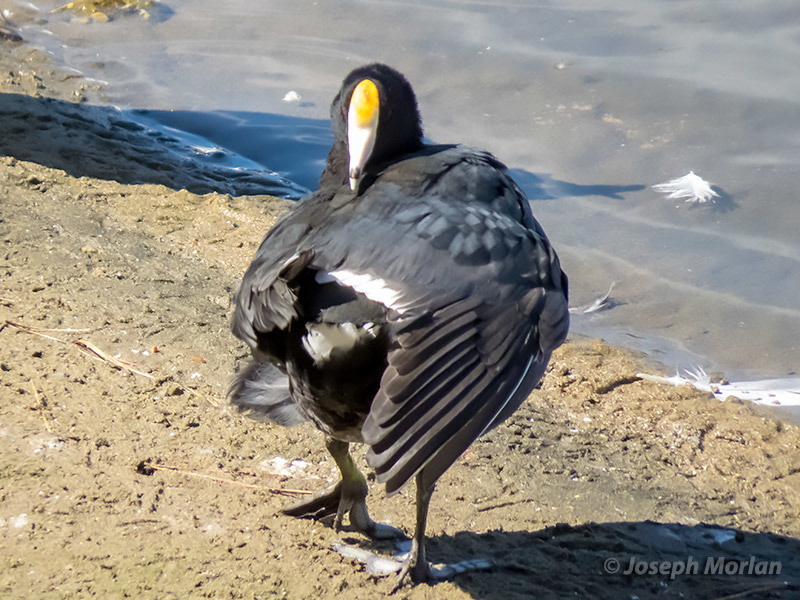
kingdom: Animalia
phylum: Chordata
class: Aves
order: Gruiformes
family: Rallidae
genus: Fulica
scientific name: Fulica americana
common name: American coot
